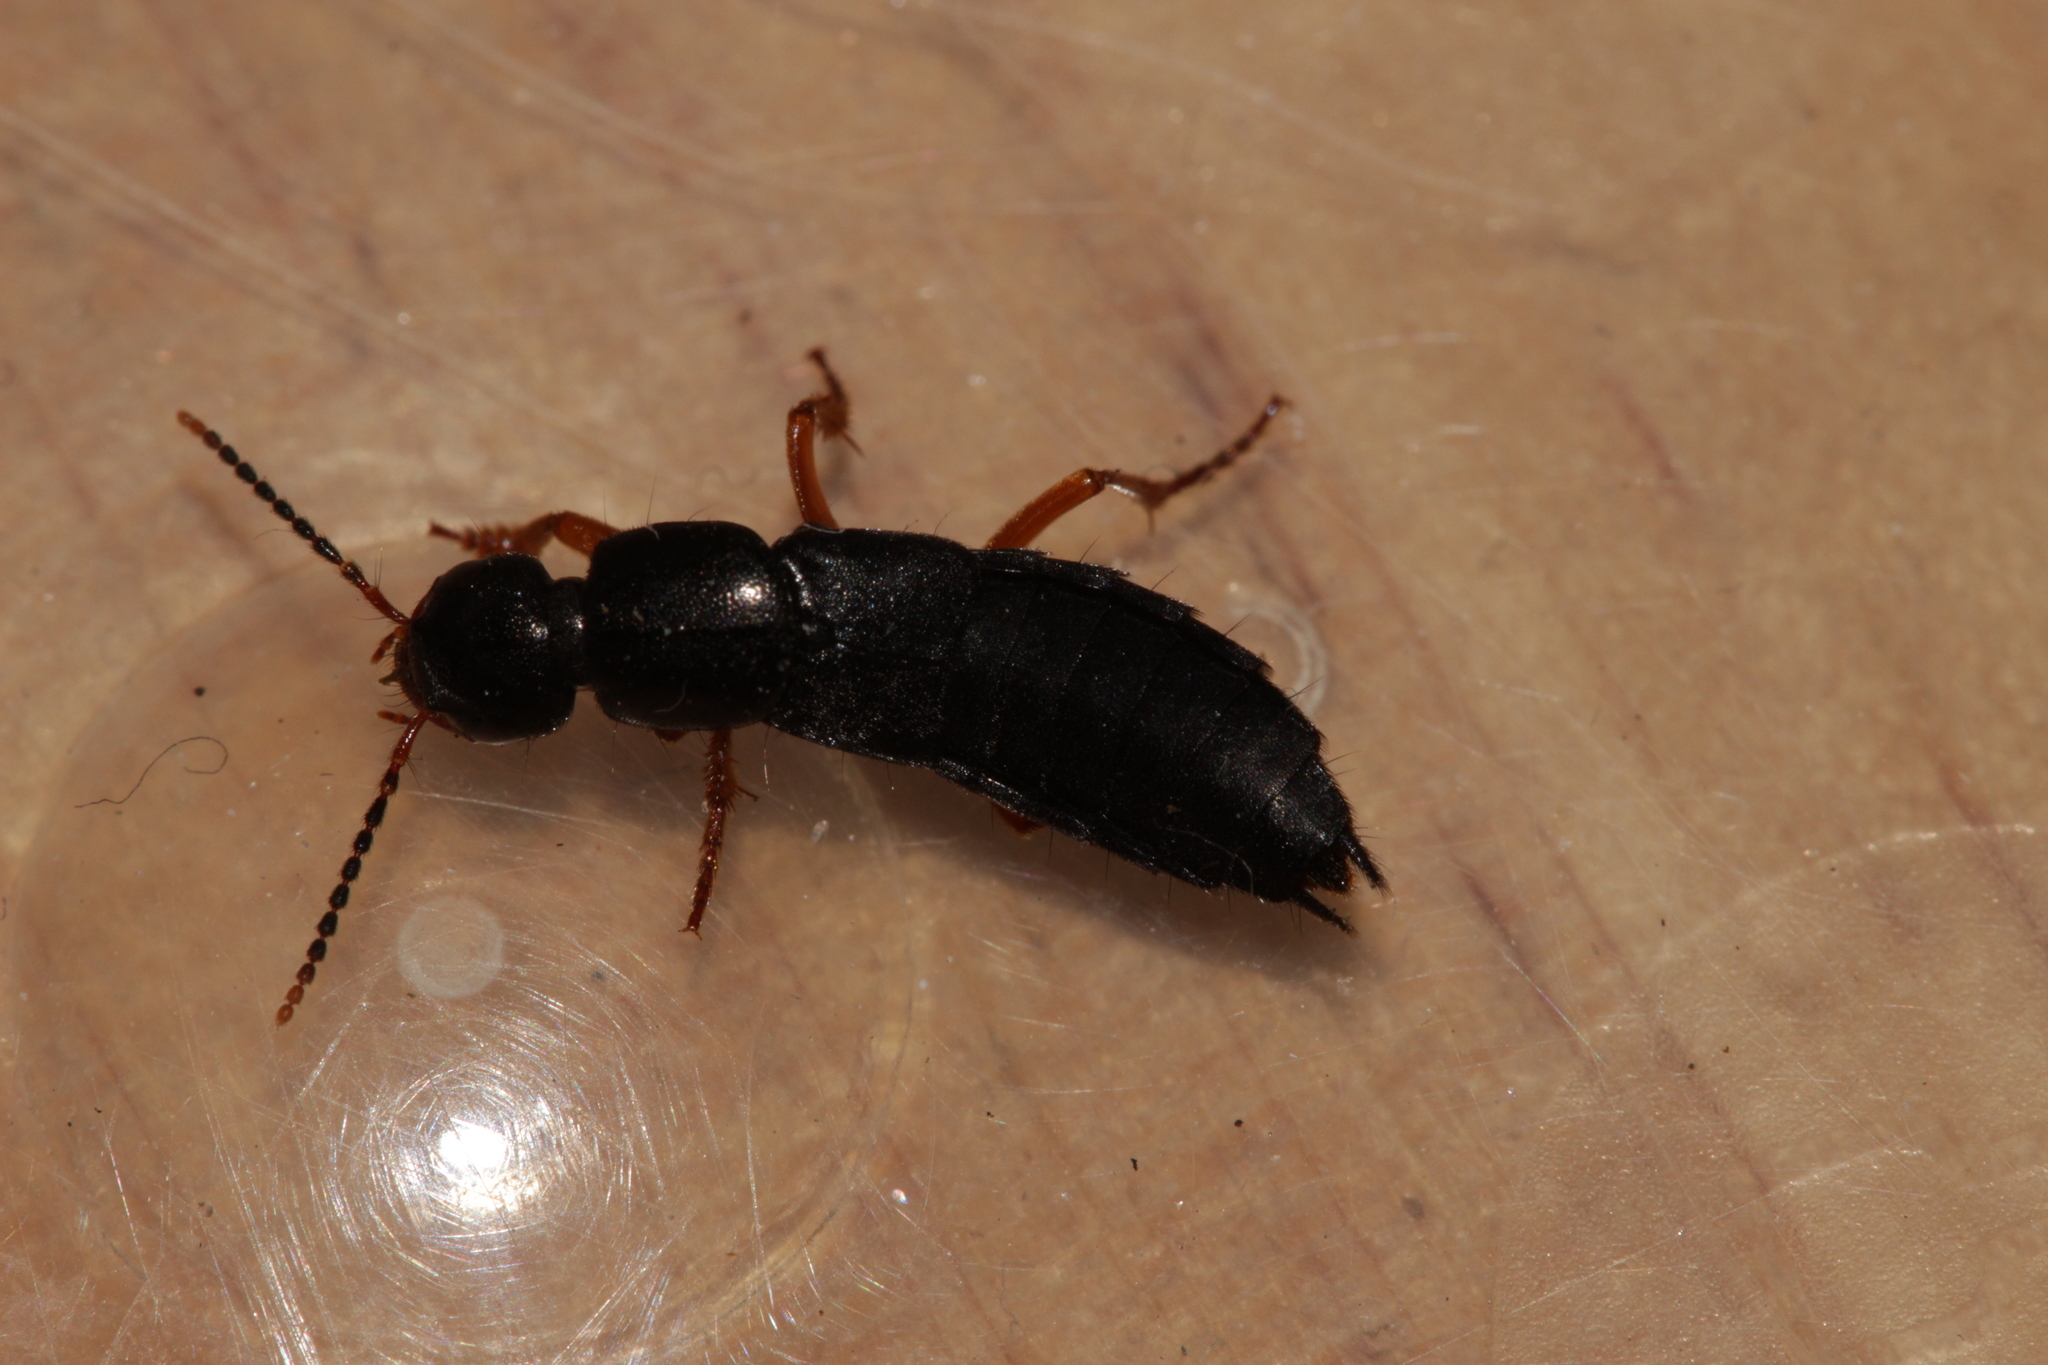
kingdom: Animalia
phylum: Arthropoda
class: Insecta
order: Coleoptera
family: Staphylinidae
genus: Ocypus
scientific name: Ocypus brunnipes
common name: Rove beetle
